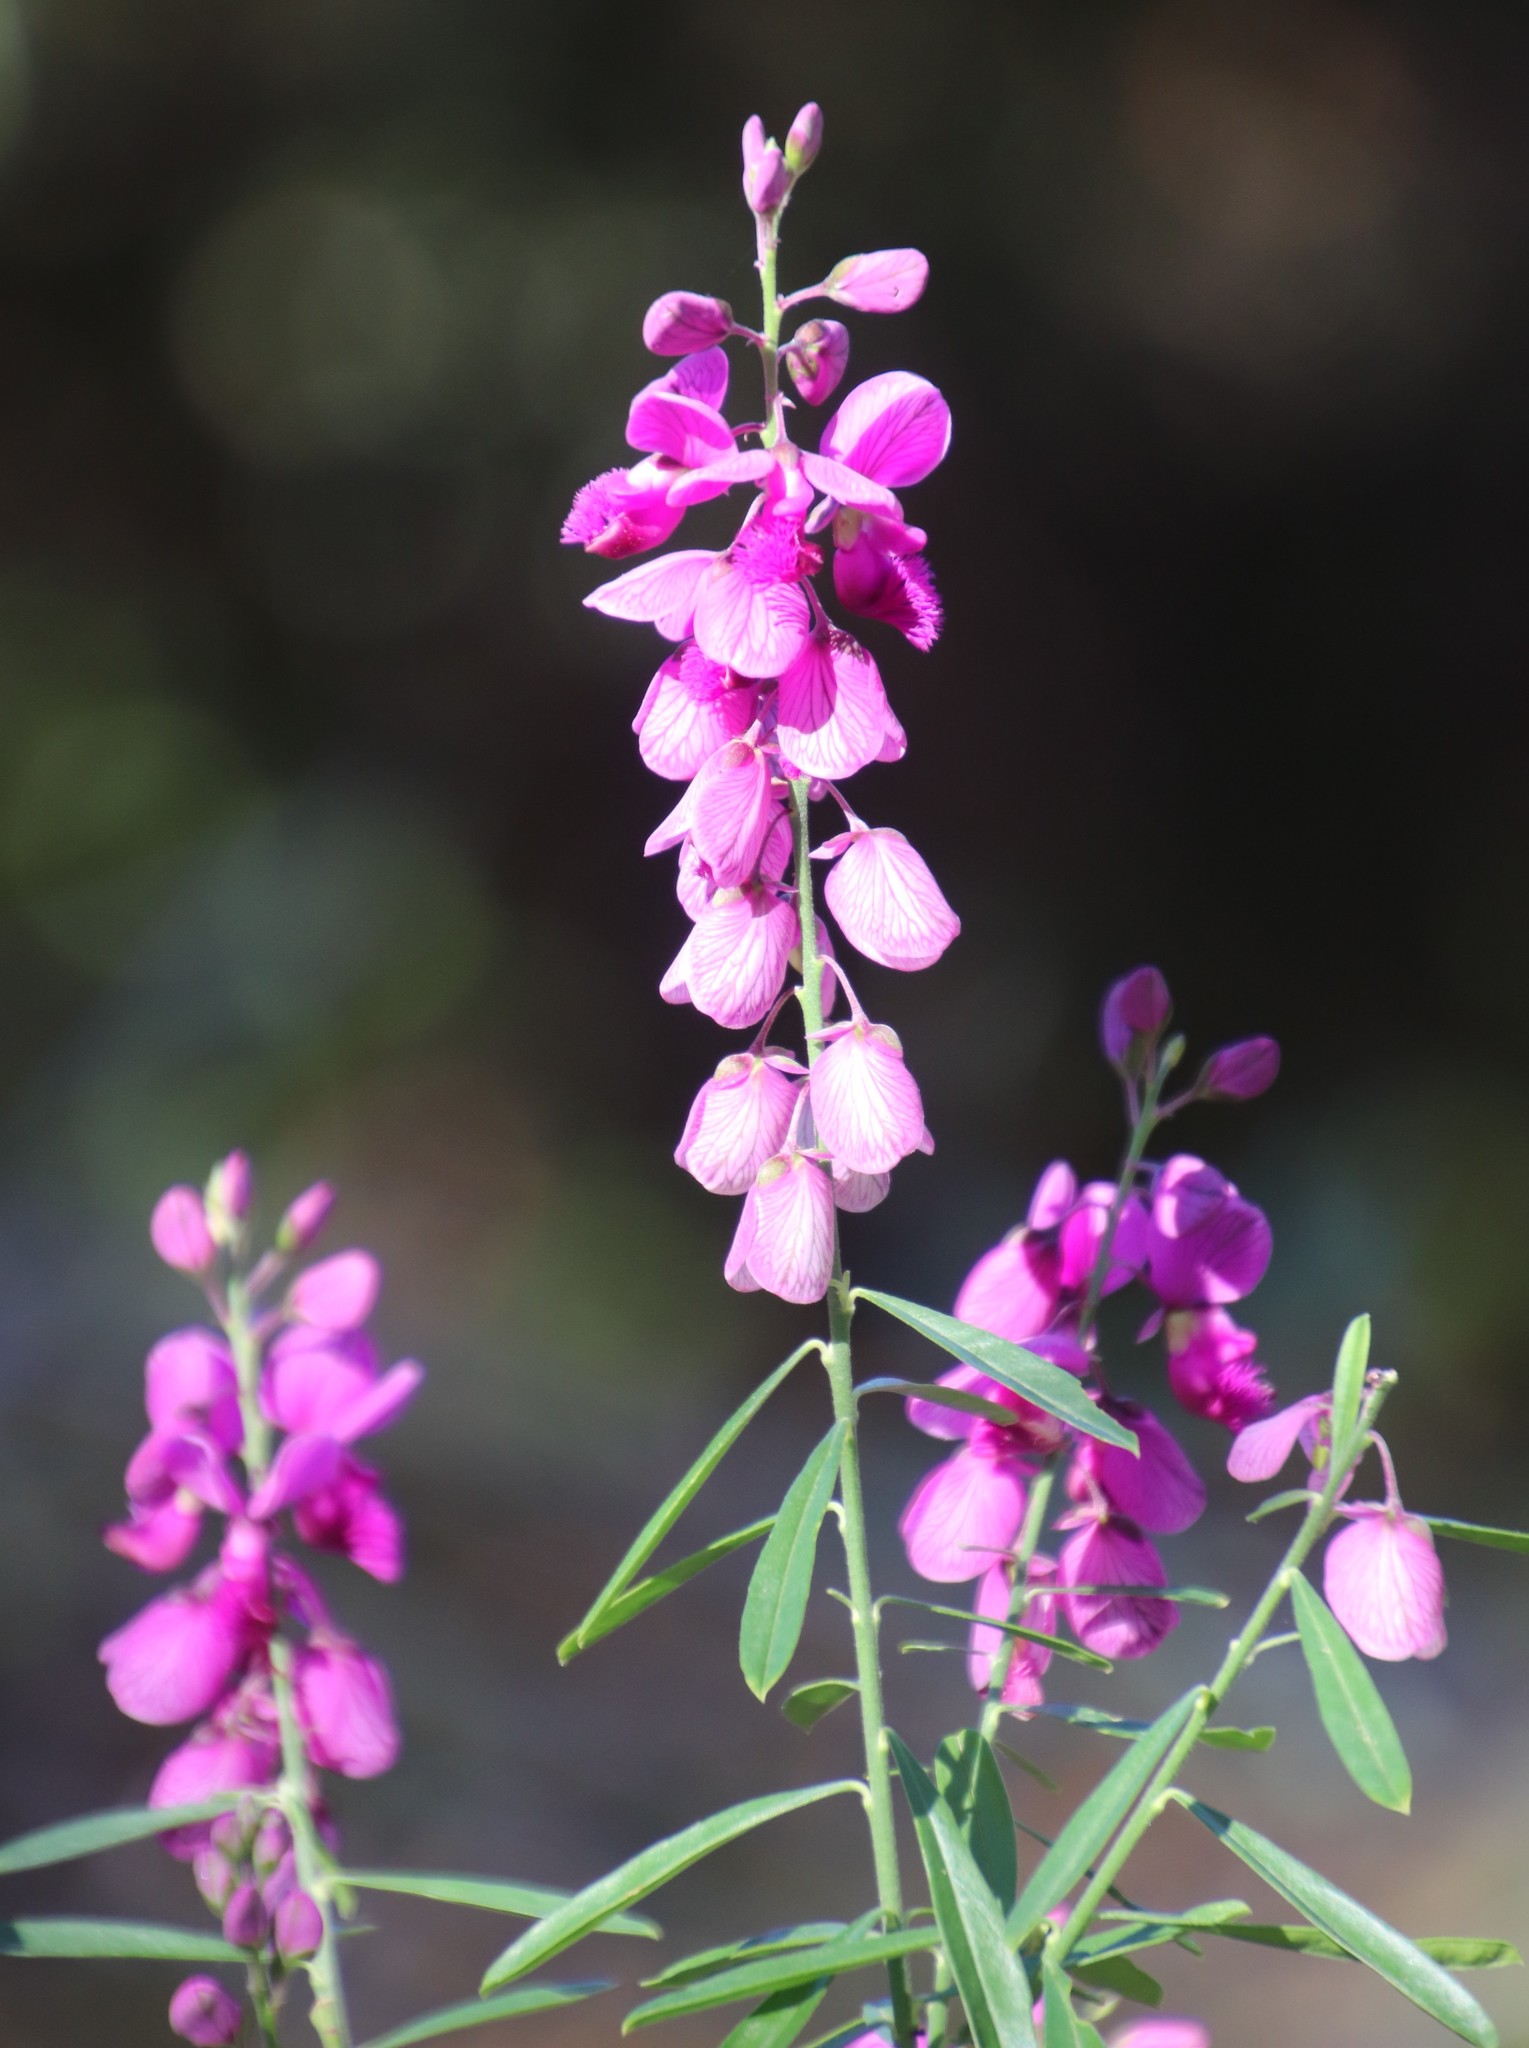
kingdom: Plantae
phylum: Tracheophyta
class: Magnoliopsida
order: Fabales
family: Polygalaceae
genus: Polygala
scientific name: Polygala virgata
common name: Milkwort
